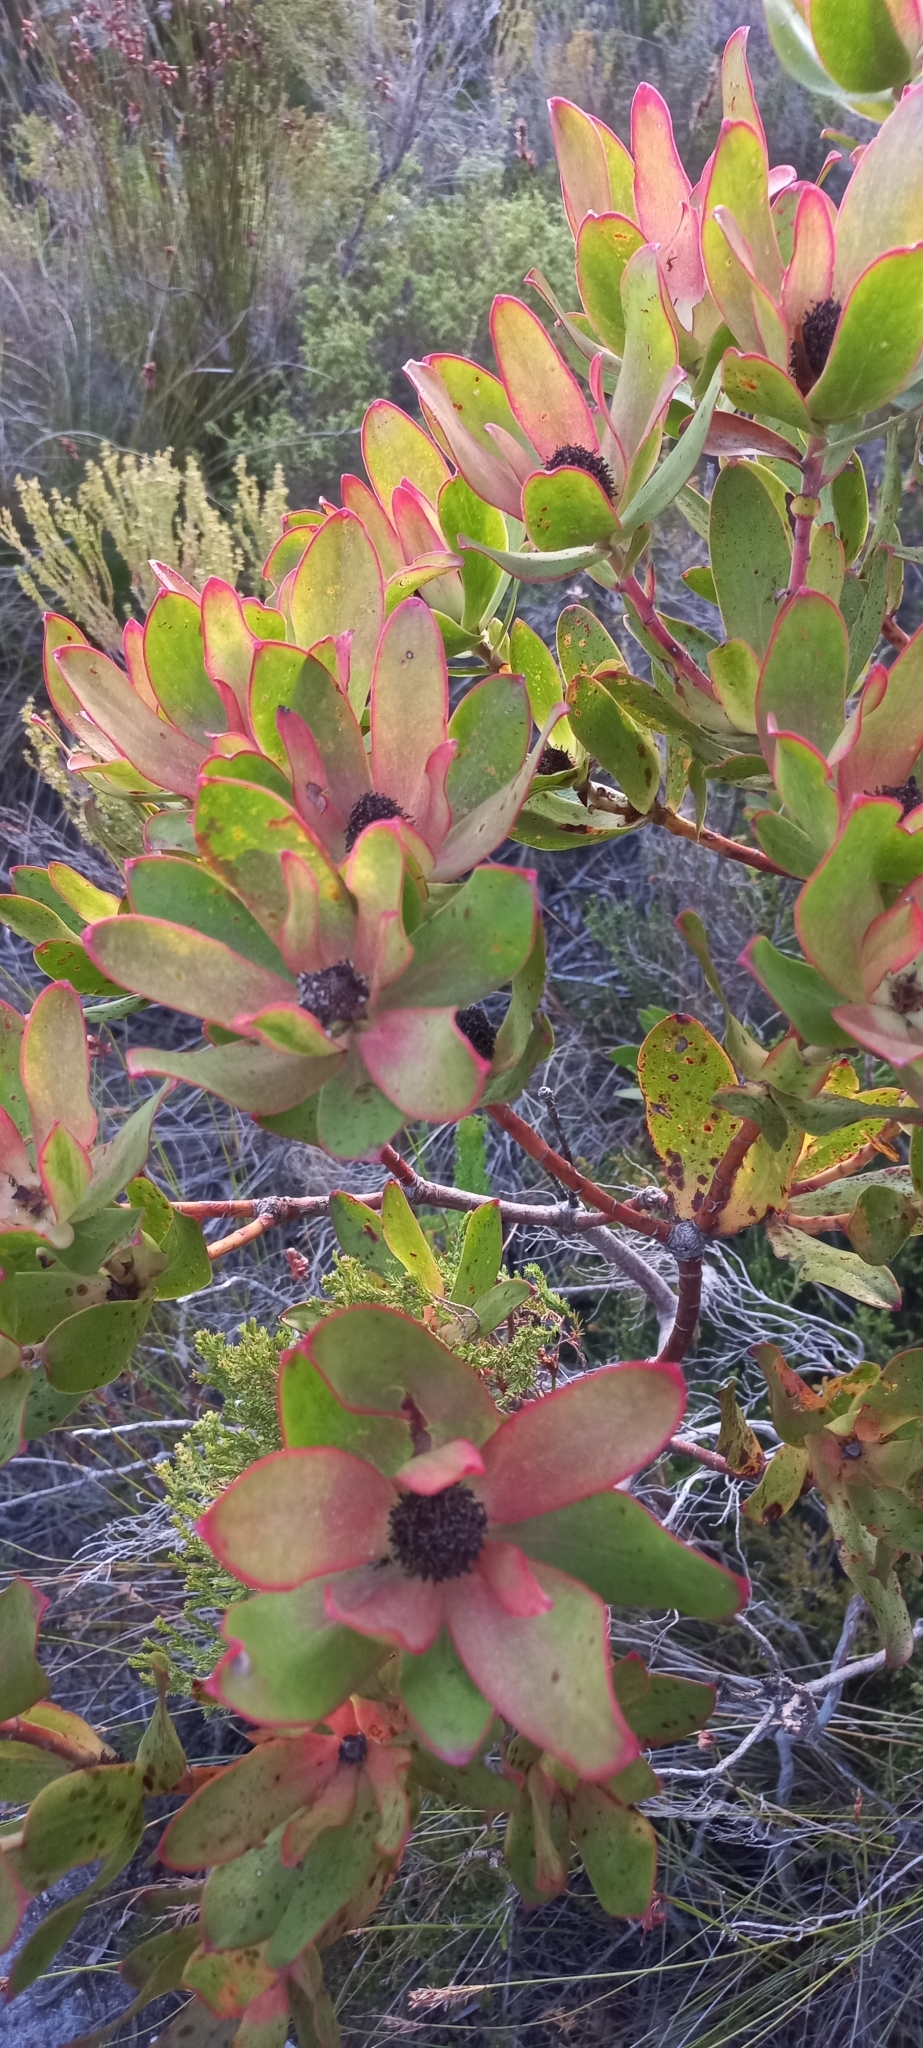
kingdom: Plantae
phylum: Tracheophyta
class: Magnoliopsida
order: Proteales
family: Proteaceae
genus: Leucadendron
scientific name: Leucadendron gandogeri
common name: Broad-leaf conebush
